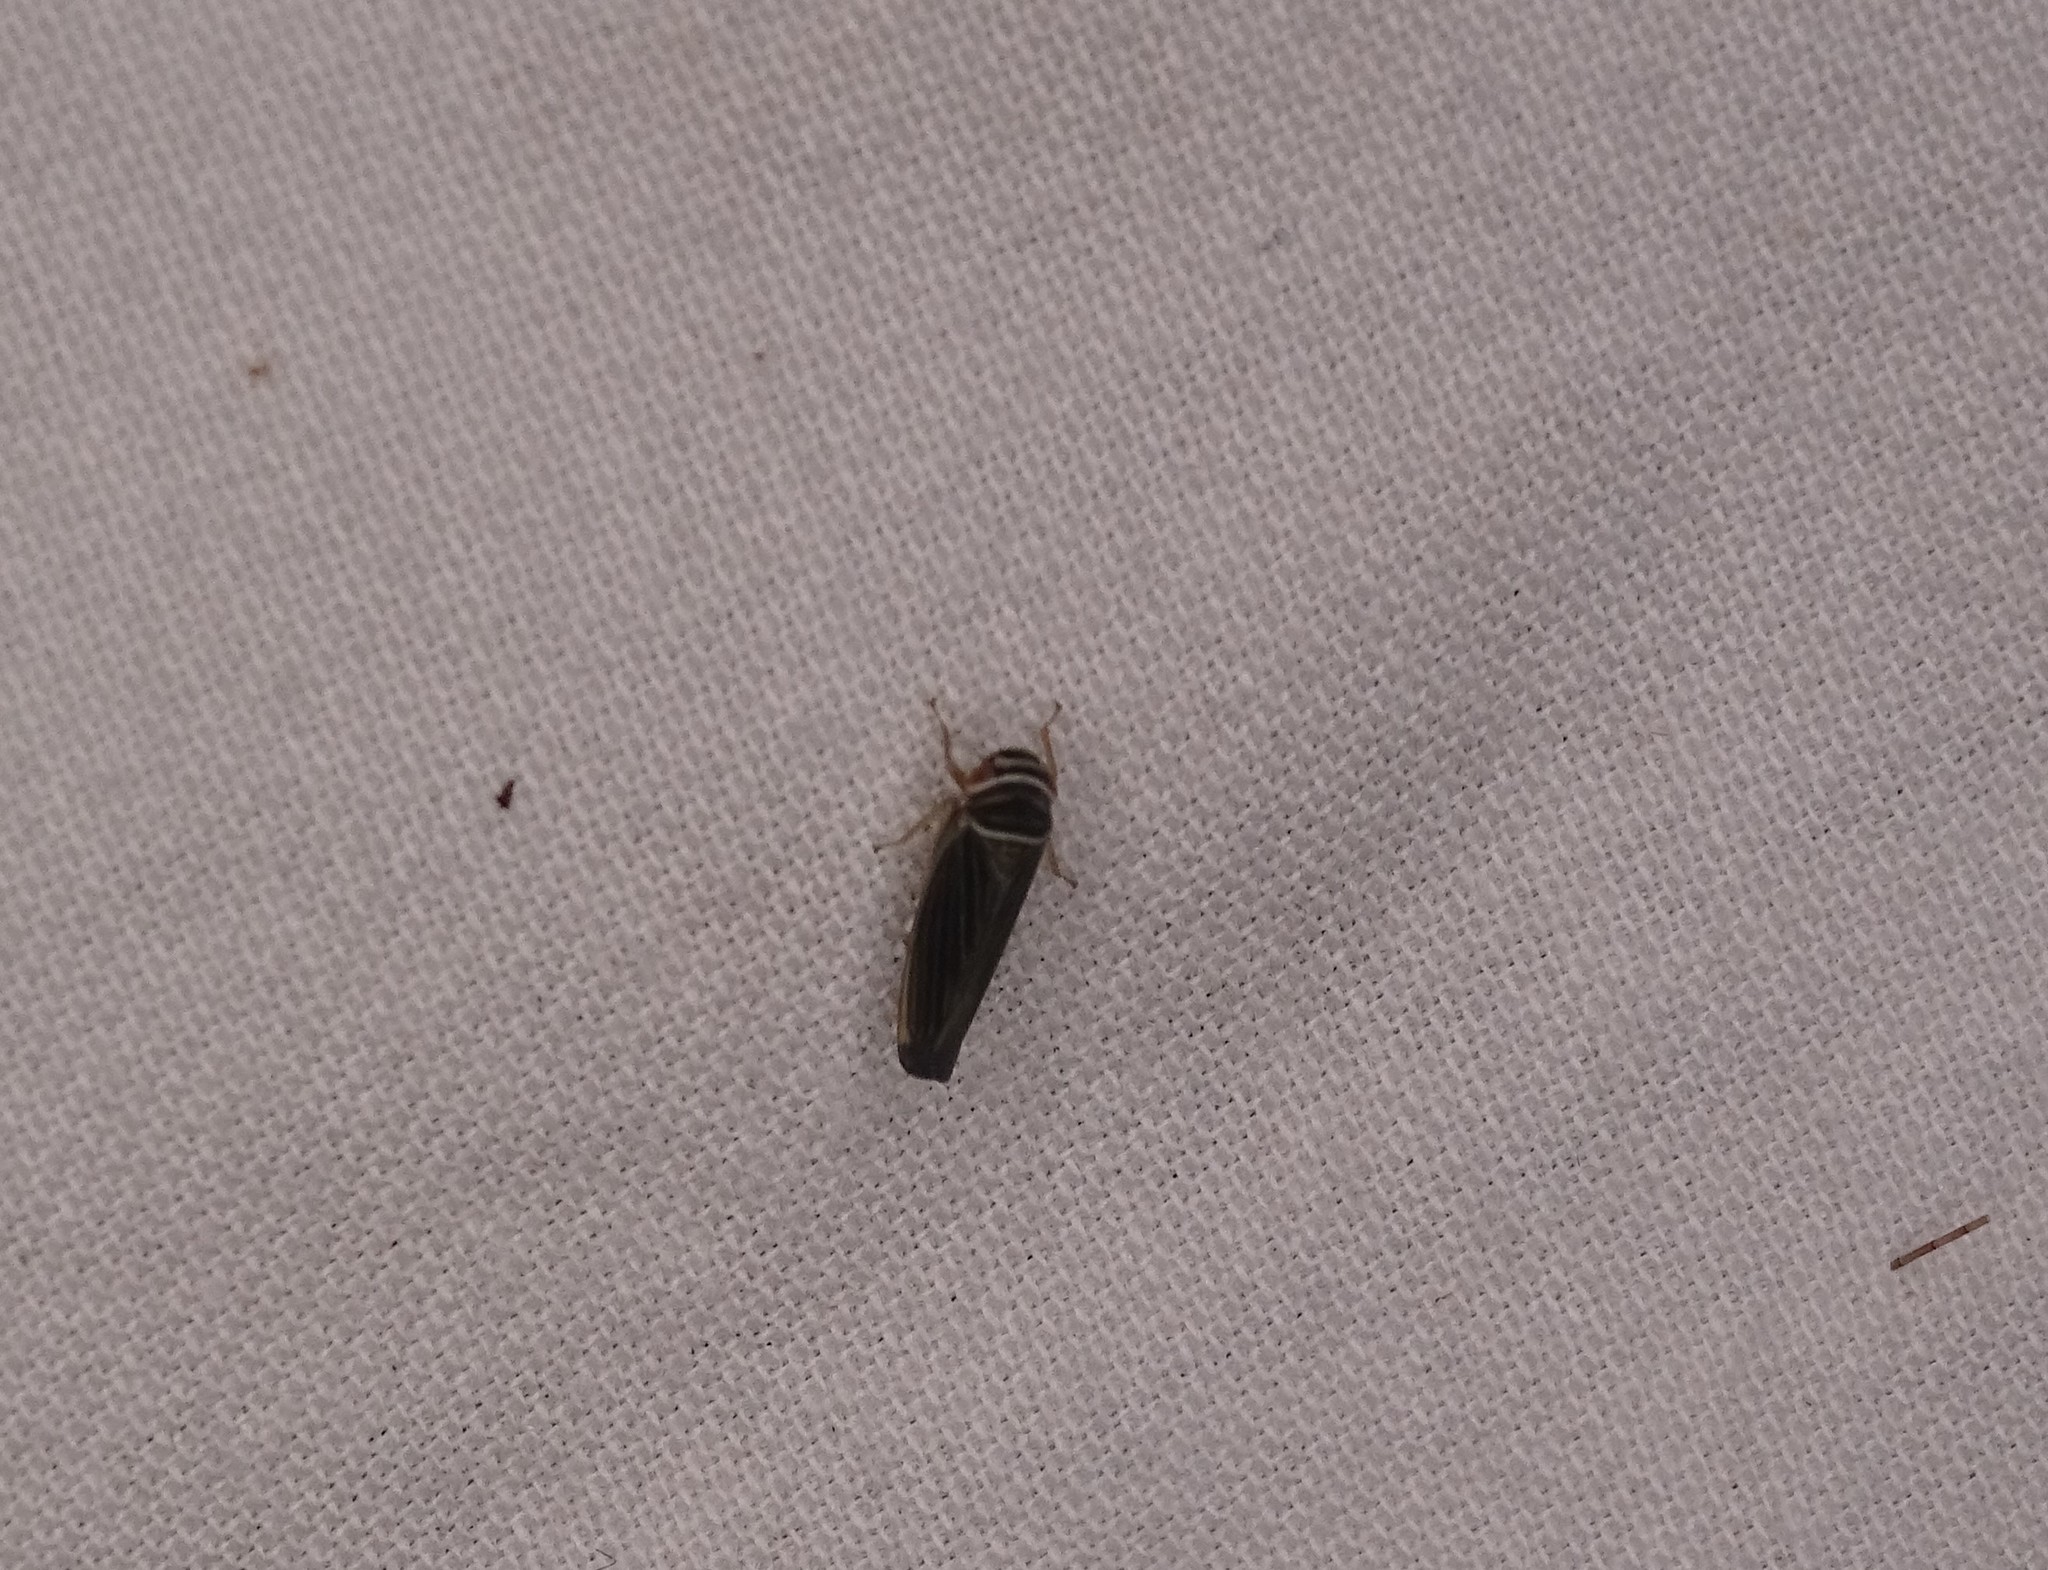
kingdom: Animalia
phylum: Arthropoda
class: Insecta
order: Hemiptera
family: Cicadellidae
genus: Tylozygus
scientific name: Tylozygus bifidus
